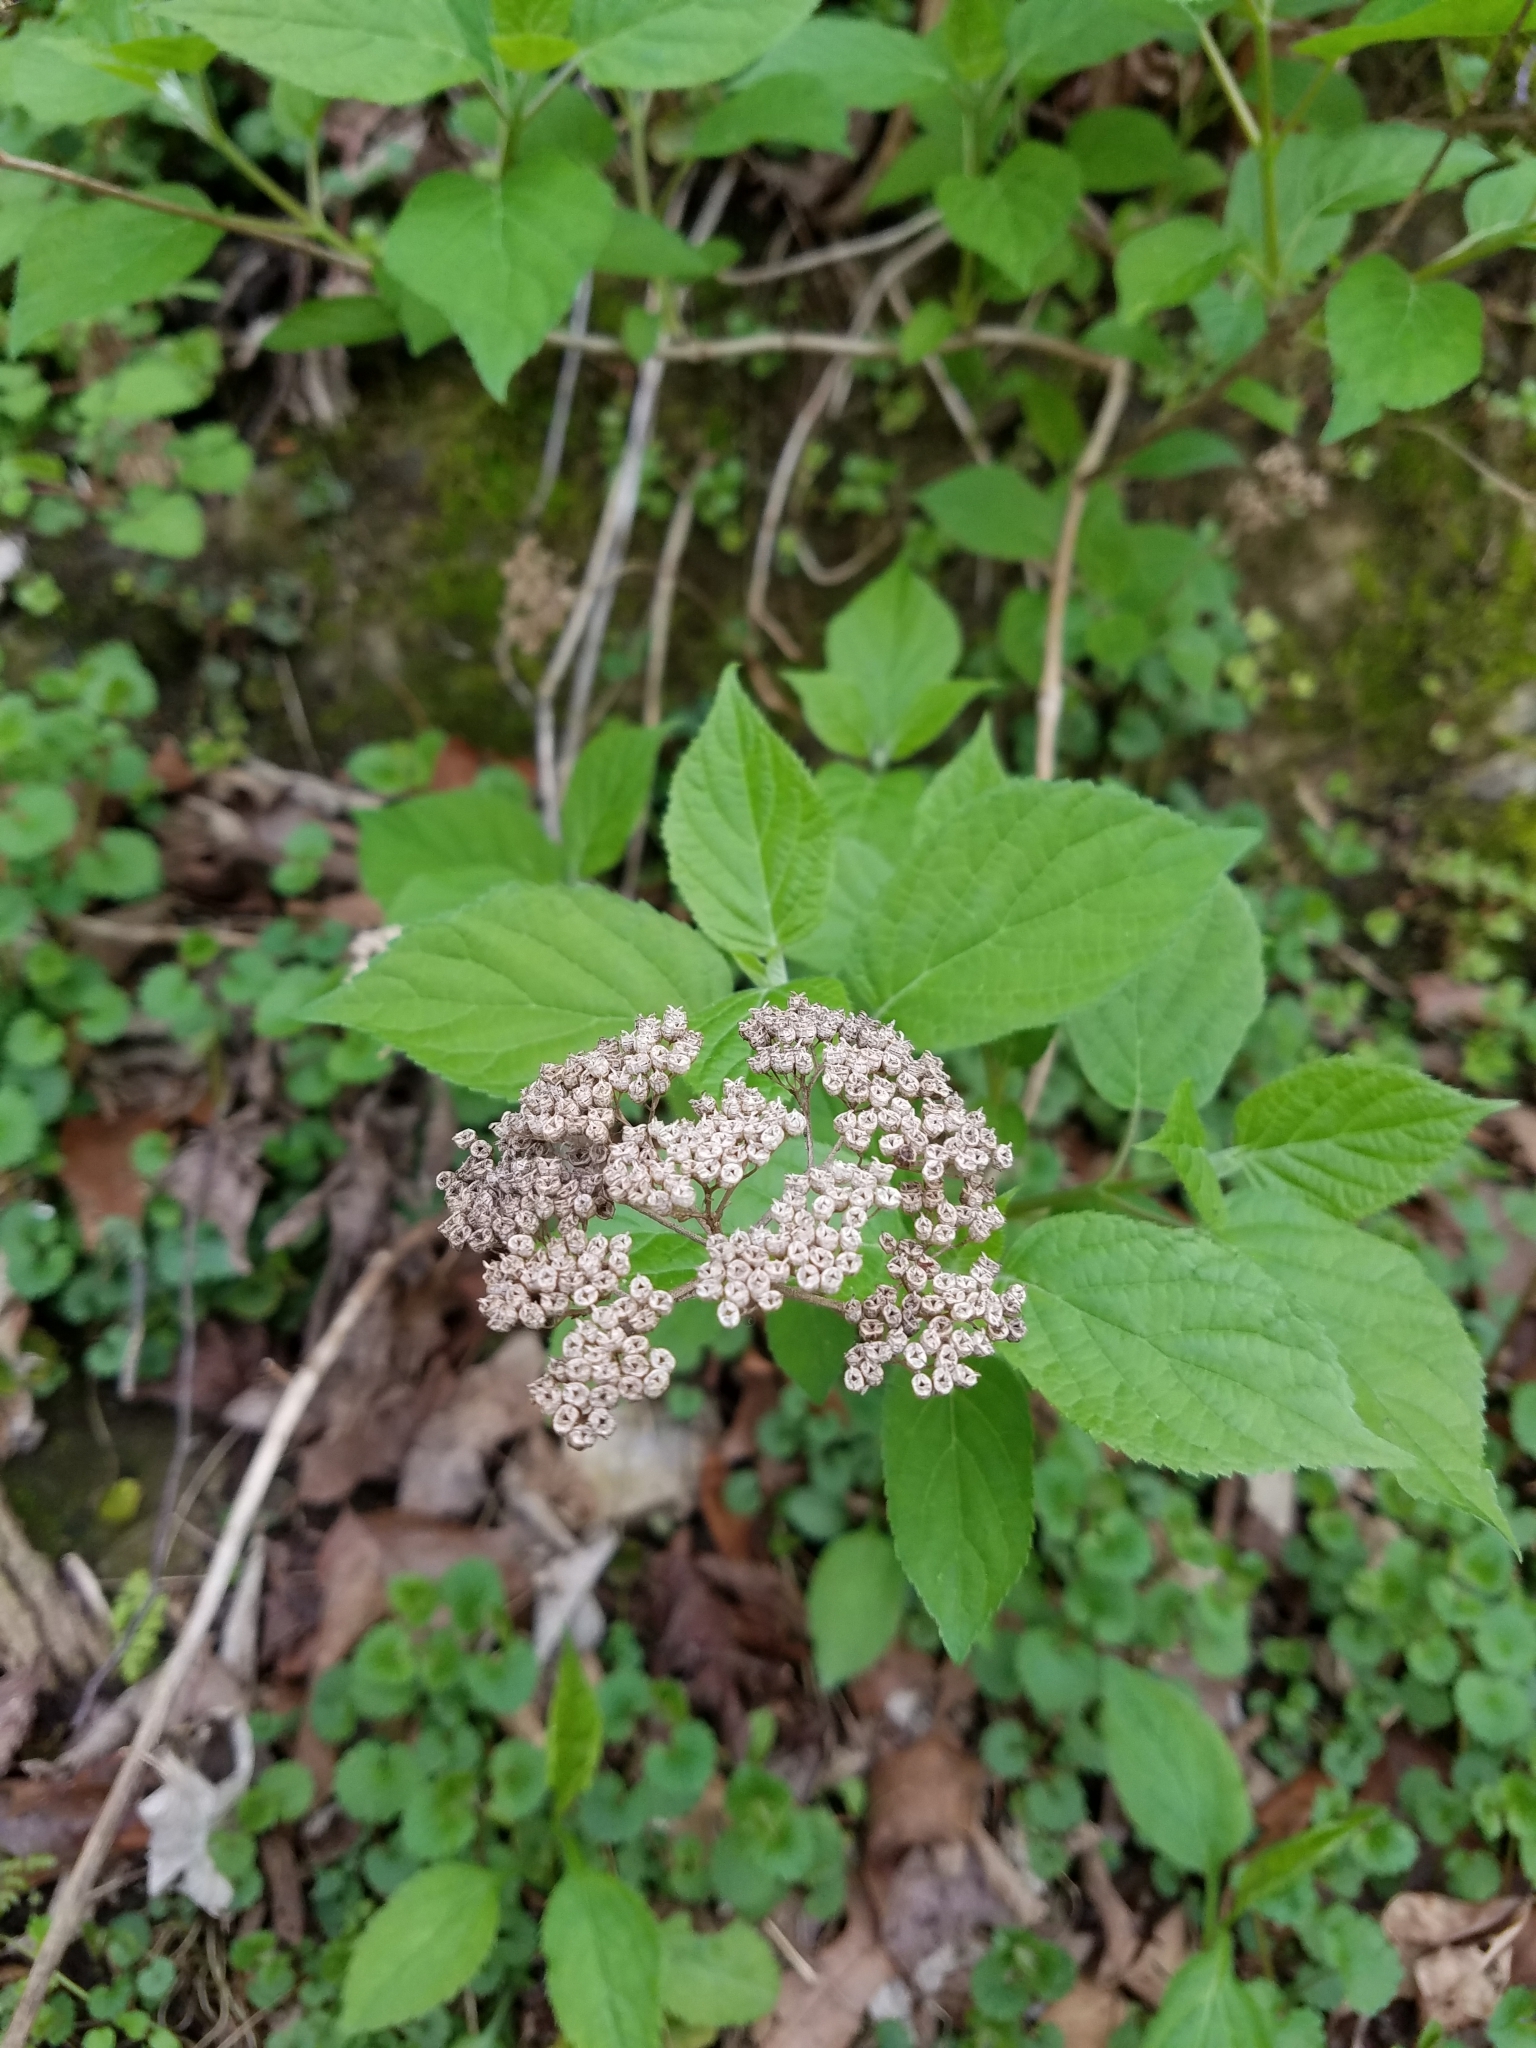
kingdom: Plantae
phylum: Tracheophyta
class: Magnoliopsida
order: Cornales
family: Hydrangeaceae
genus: Hydrangea
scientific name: Hydrangea arborescens
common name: Sevenbark
